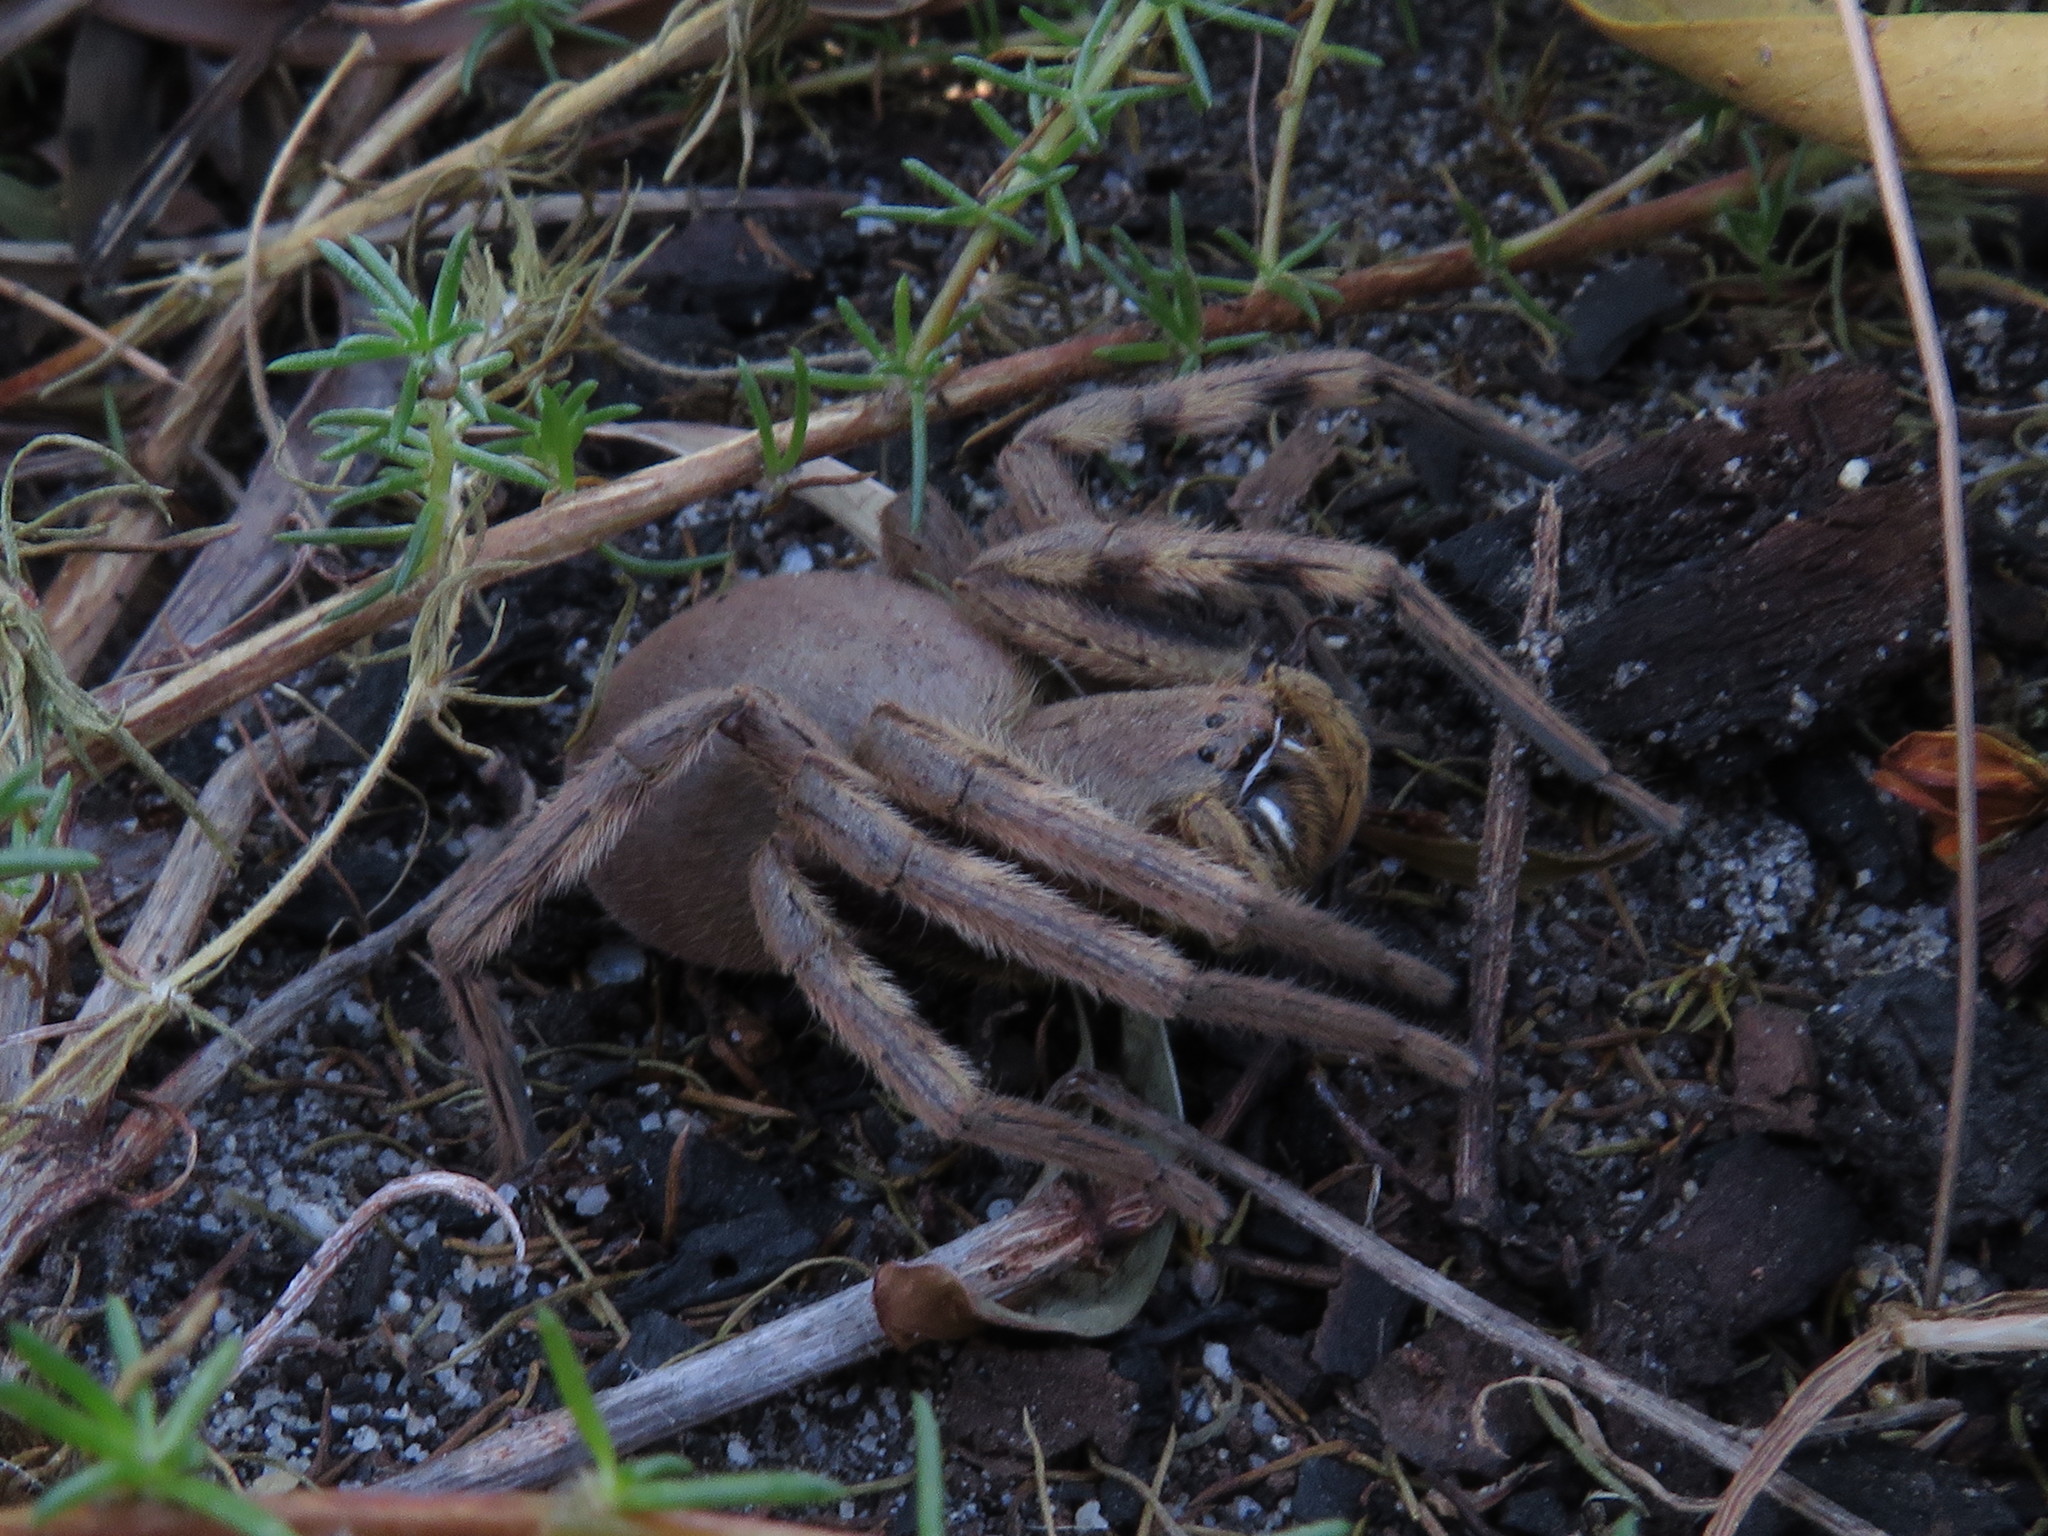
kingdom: Animalia
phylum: Arthropoda
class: Arachnida
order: Araneae
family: Sparassidae
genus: Palystes
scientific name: Palystes superciliosus
